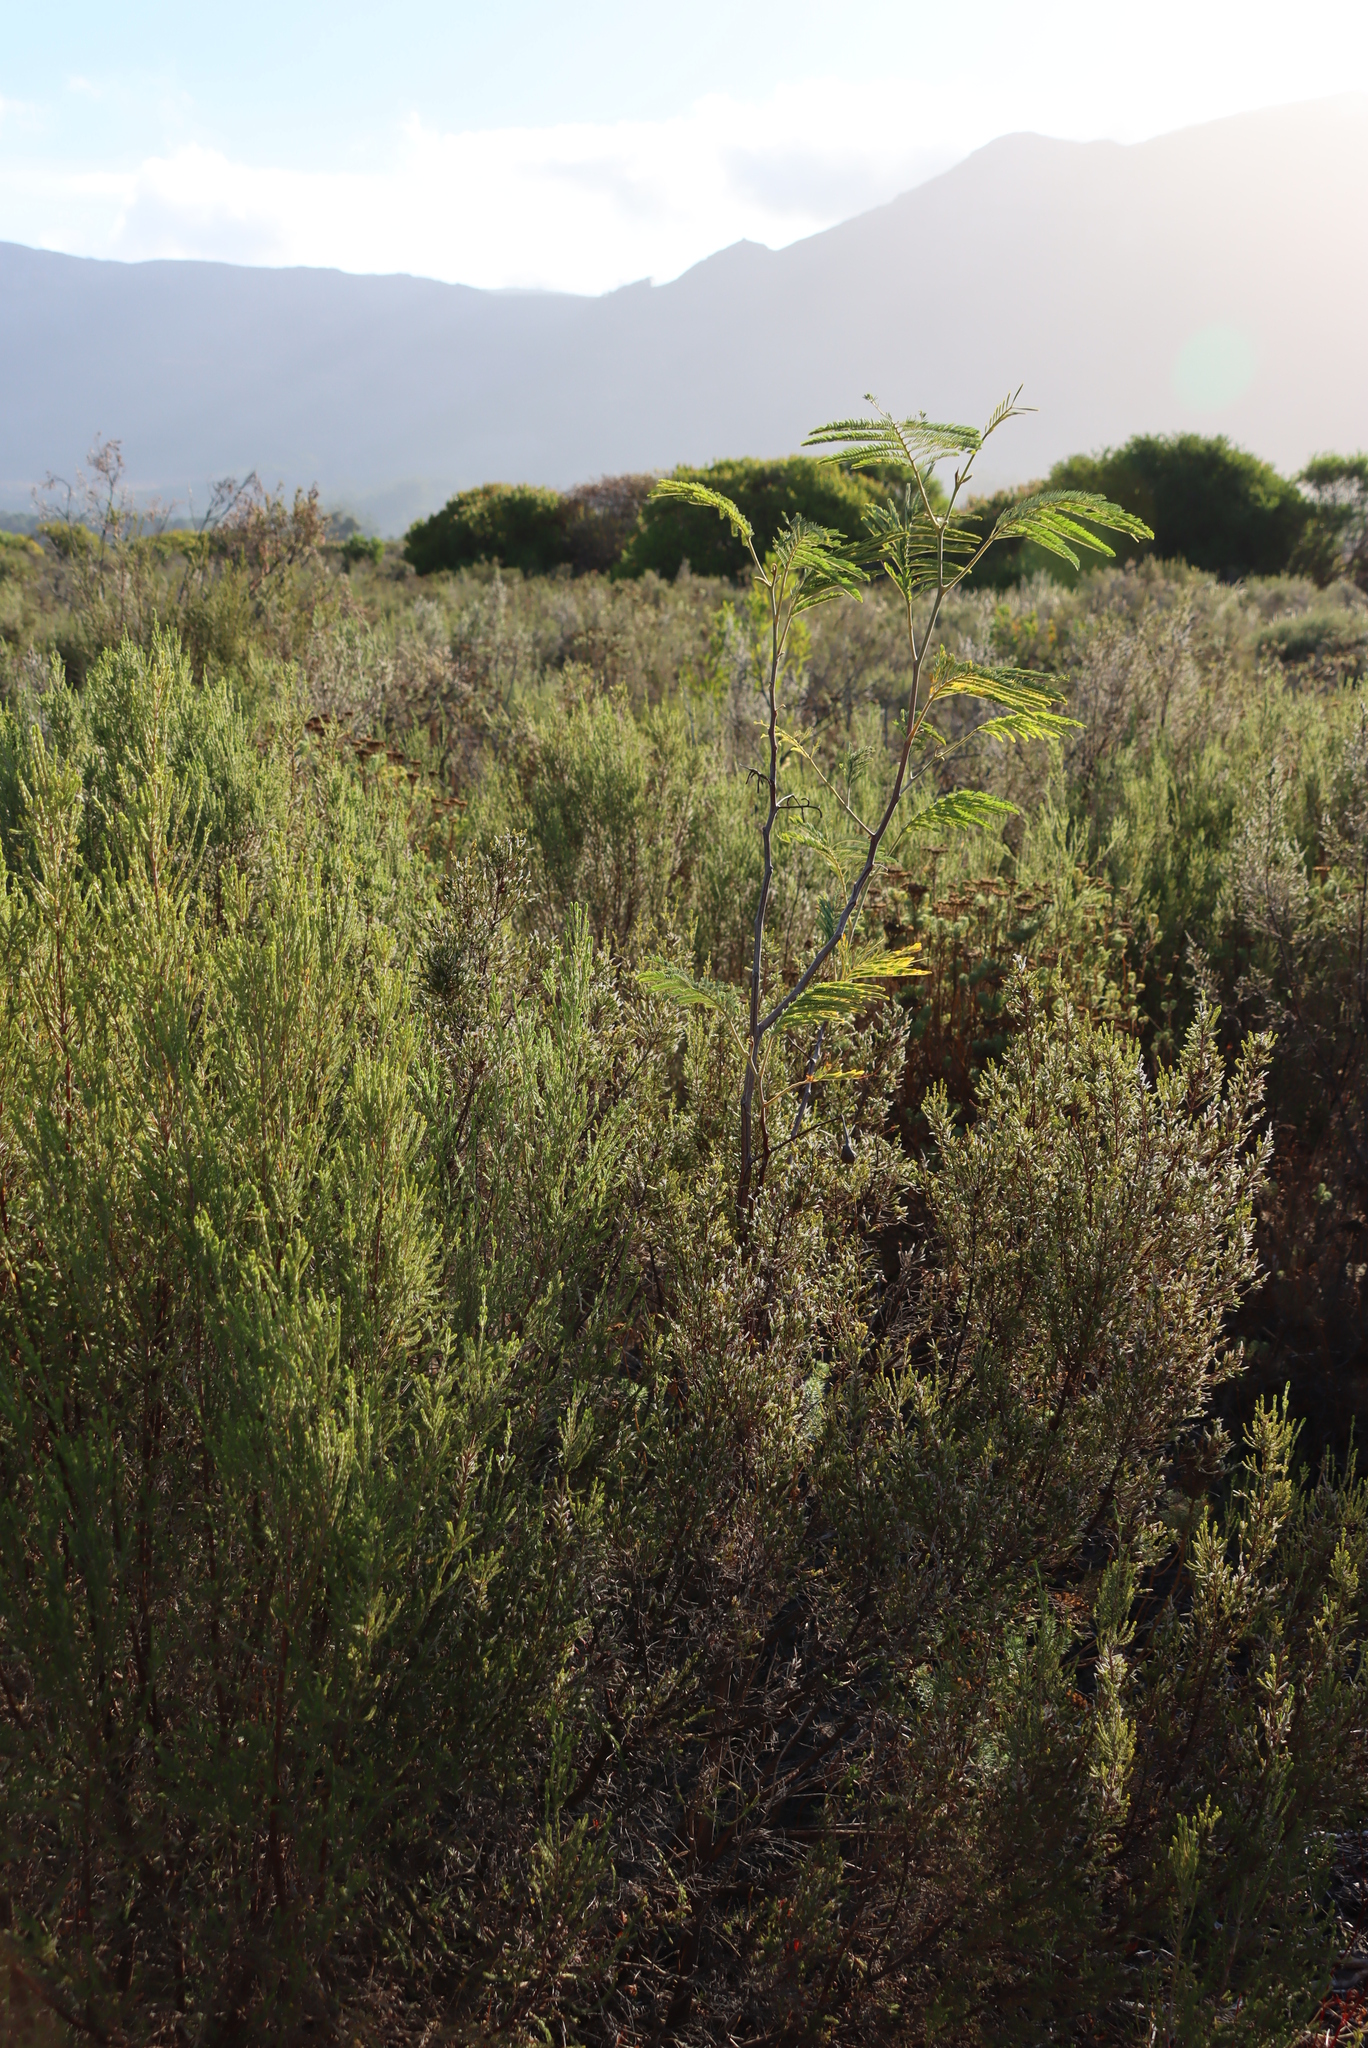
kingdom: Plantae
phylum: Tracheophyta
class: Magnoliopsida
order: Fabales
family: Fabaceae
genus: Paraserianthes
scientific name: Paraserianthes lophantha
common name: Plume albizia
